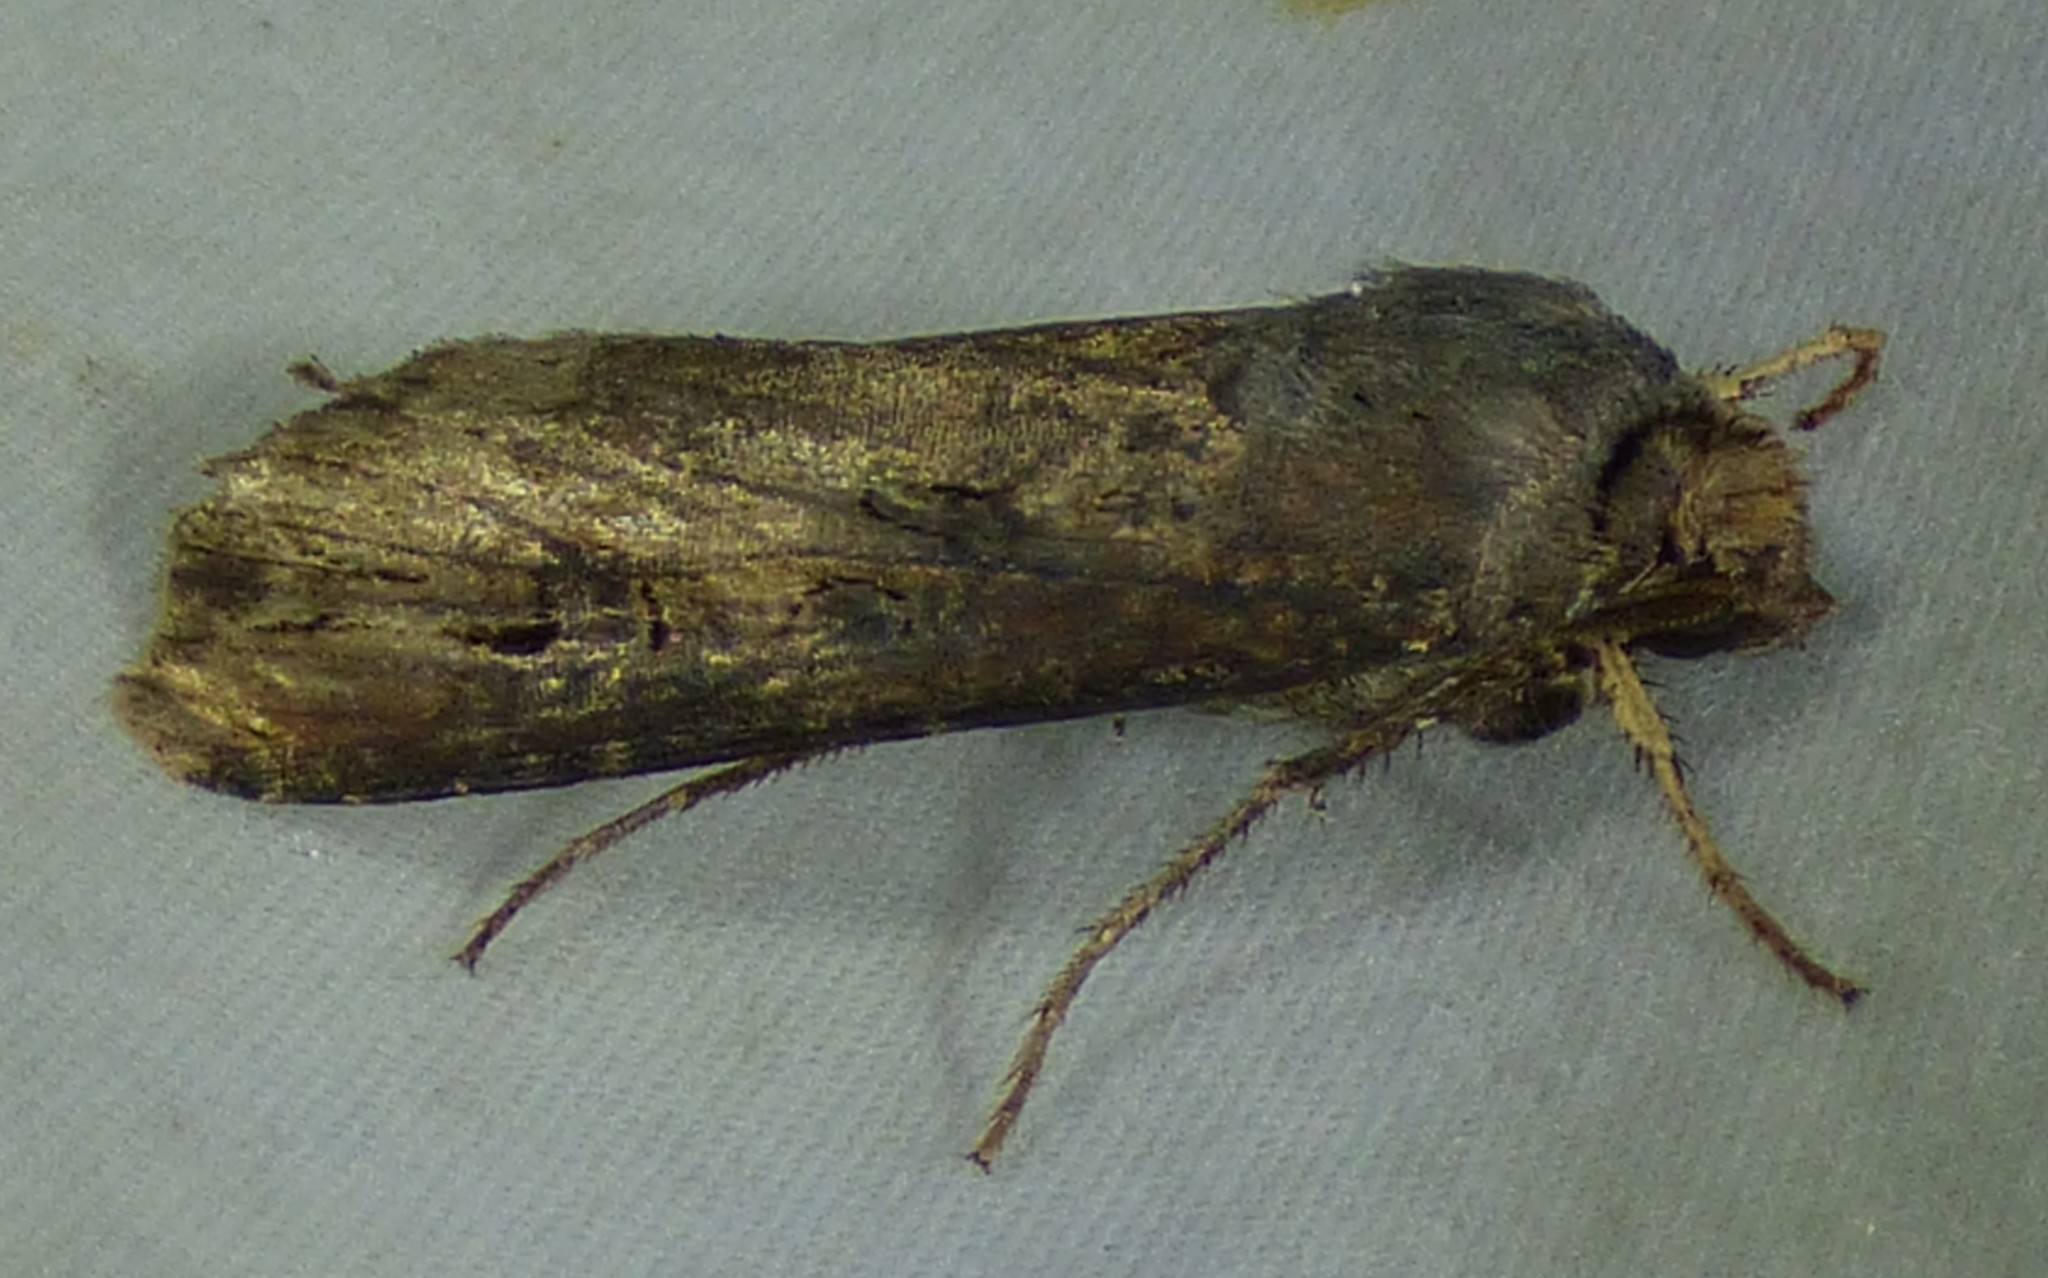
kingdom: Animalia
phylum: Arthropoda
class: Insecta
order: Lepidoptera
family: Noctuidae
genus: Agrotis
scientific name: Agrotis ipsilon
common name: Dark sword-grass
